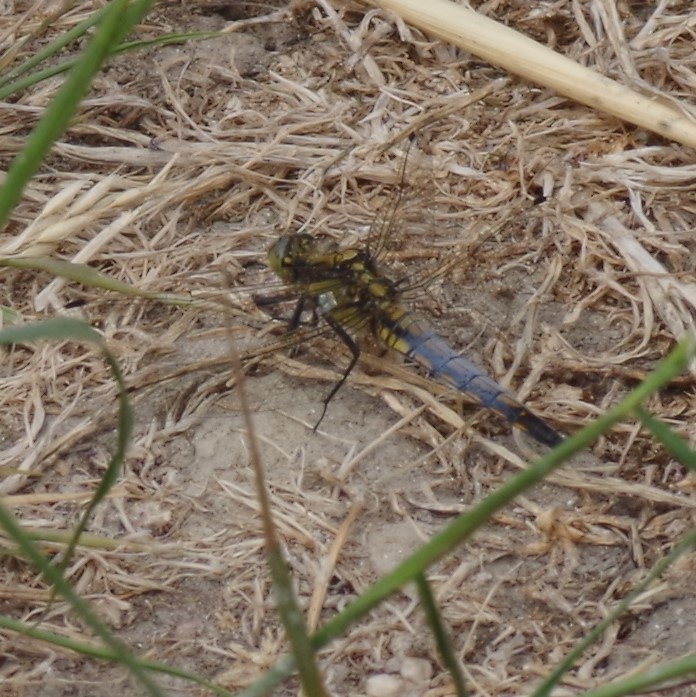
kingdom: Animalia
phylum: Arthropoda
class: Insecta
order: Odonata
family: Libellulidae
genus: Orthetrum
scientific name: Orthetrum cancellatum
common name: Black-tailed skimmer
